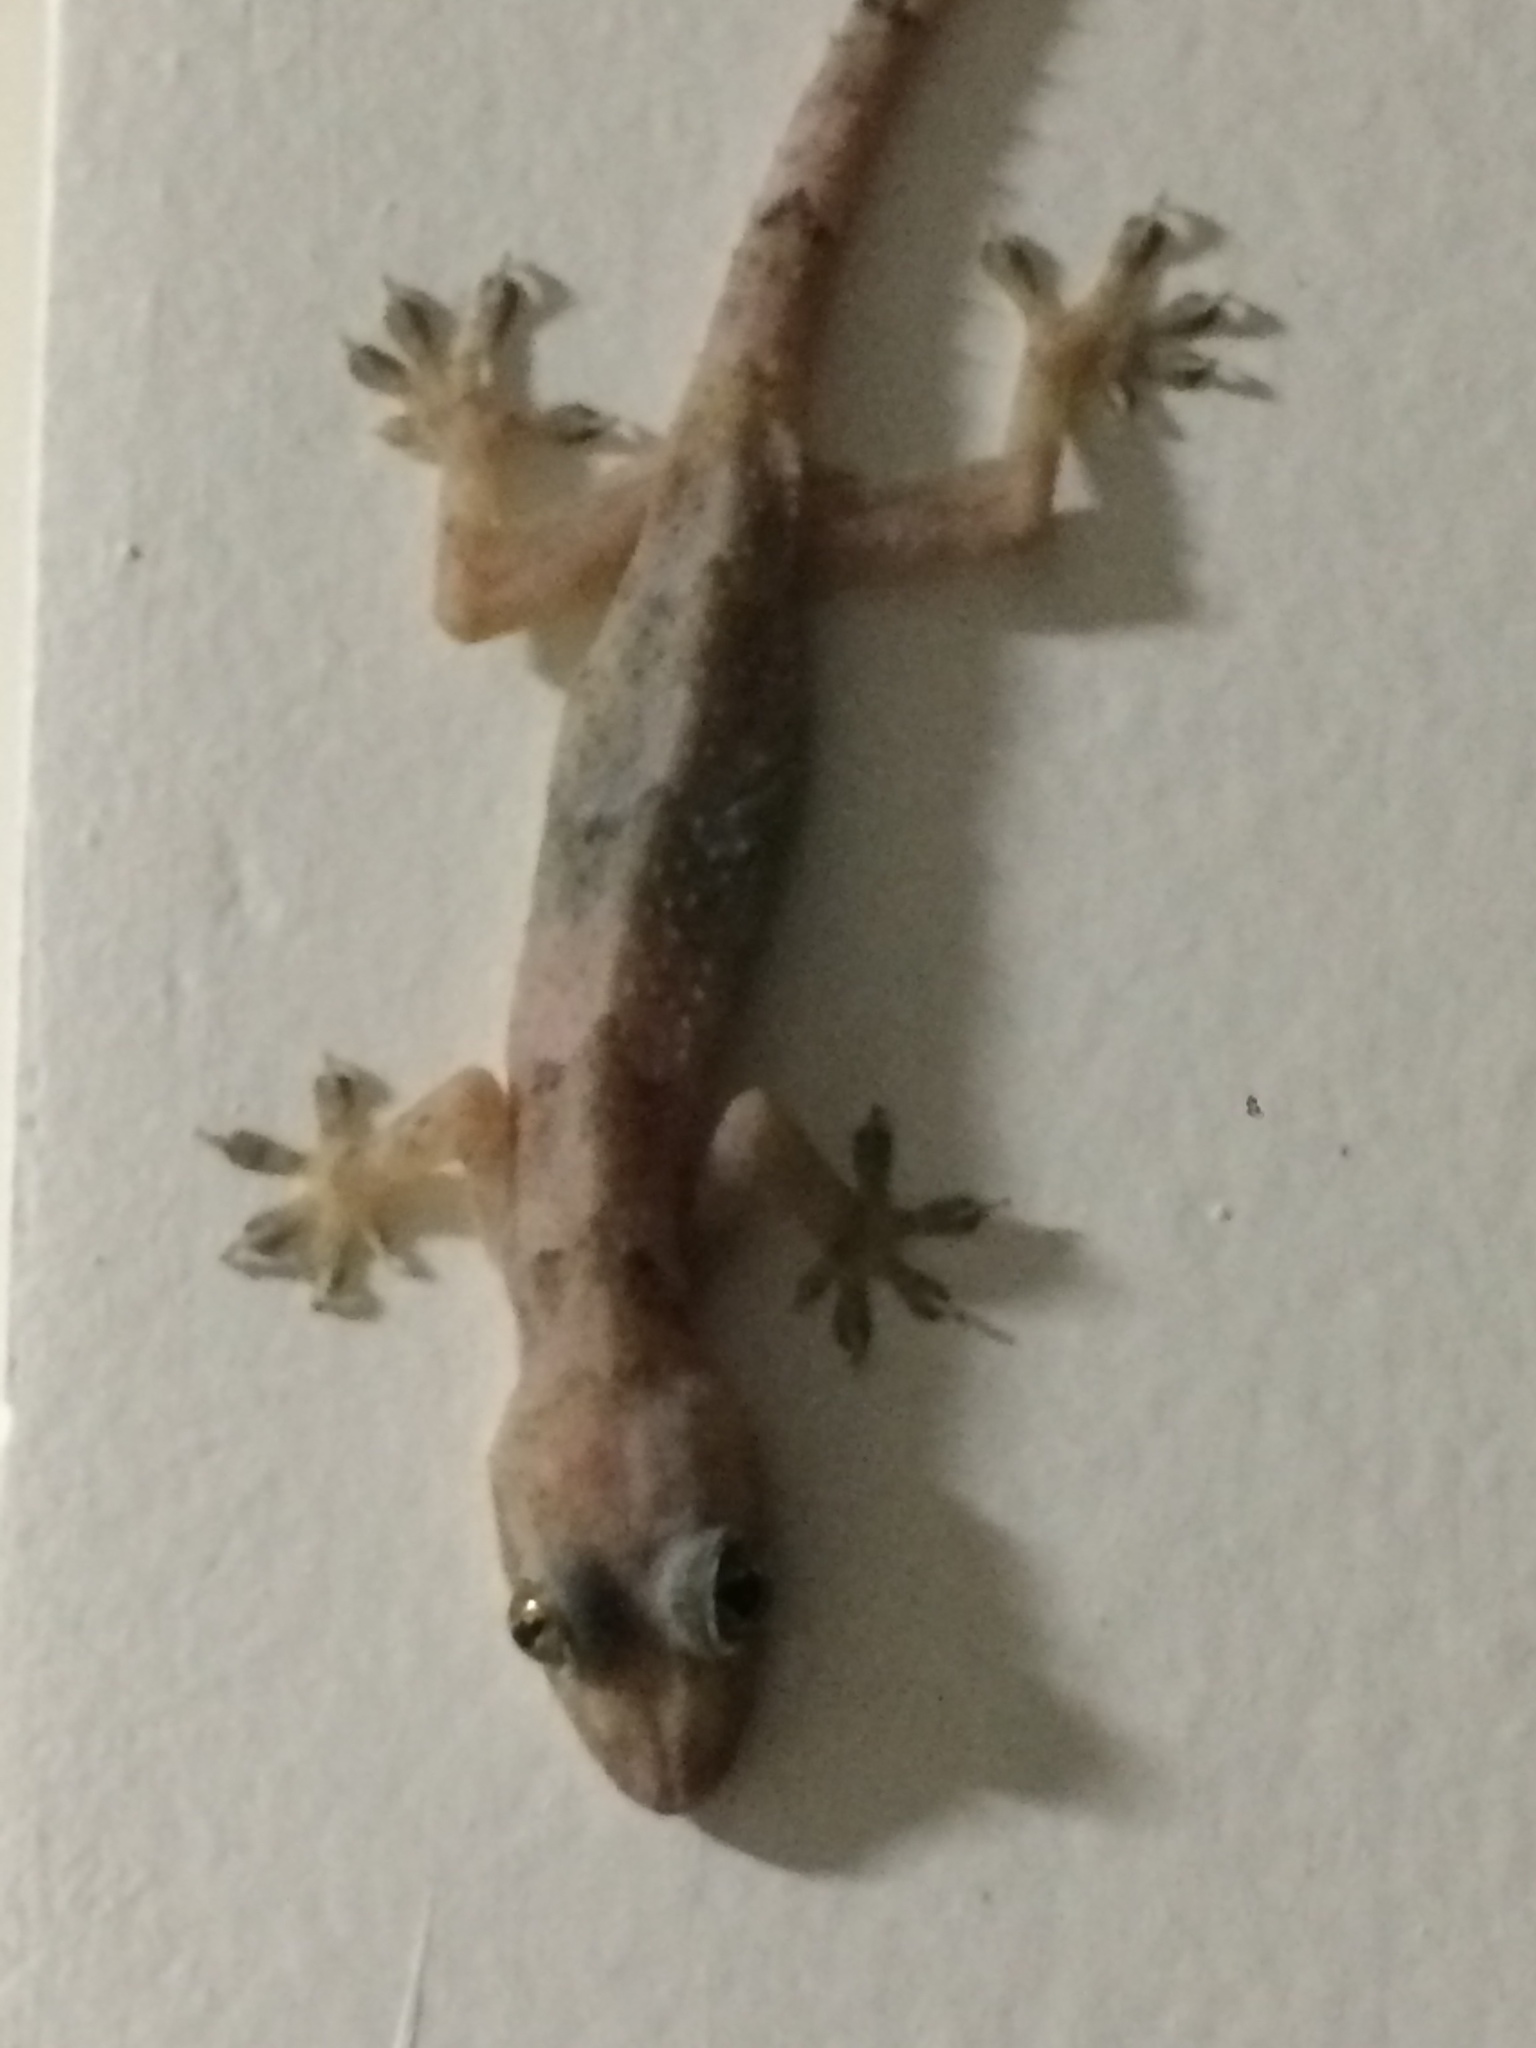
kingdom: Animalia
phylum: Chordata
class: Squamata
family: Gekkonidae
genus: Hemidactylus
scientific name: Hemidactylus mabouia
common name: House gecko
